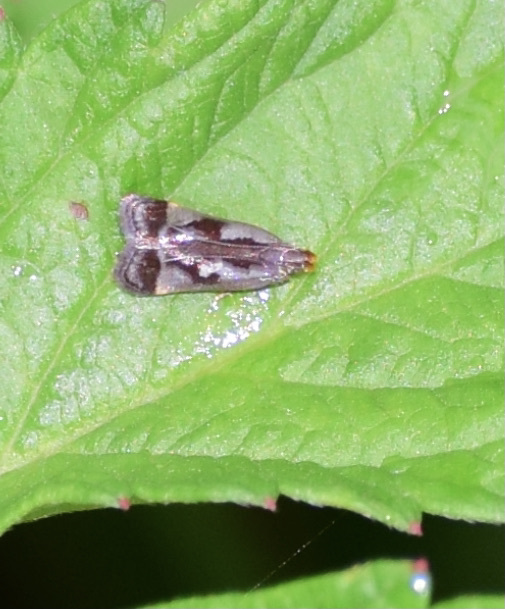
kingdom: Animalia
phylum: Arthropoda
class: Insecta
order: Lepidoptera
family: Gelechiidae
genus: Dichomeris
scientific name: Dichomeris ochripalpella
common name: Shining dichomeris moth
